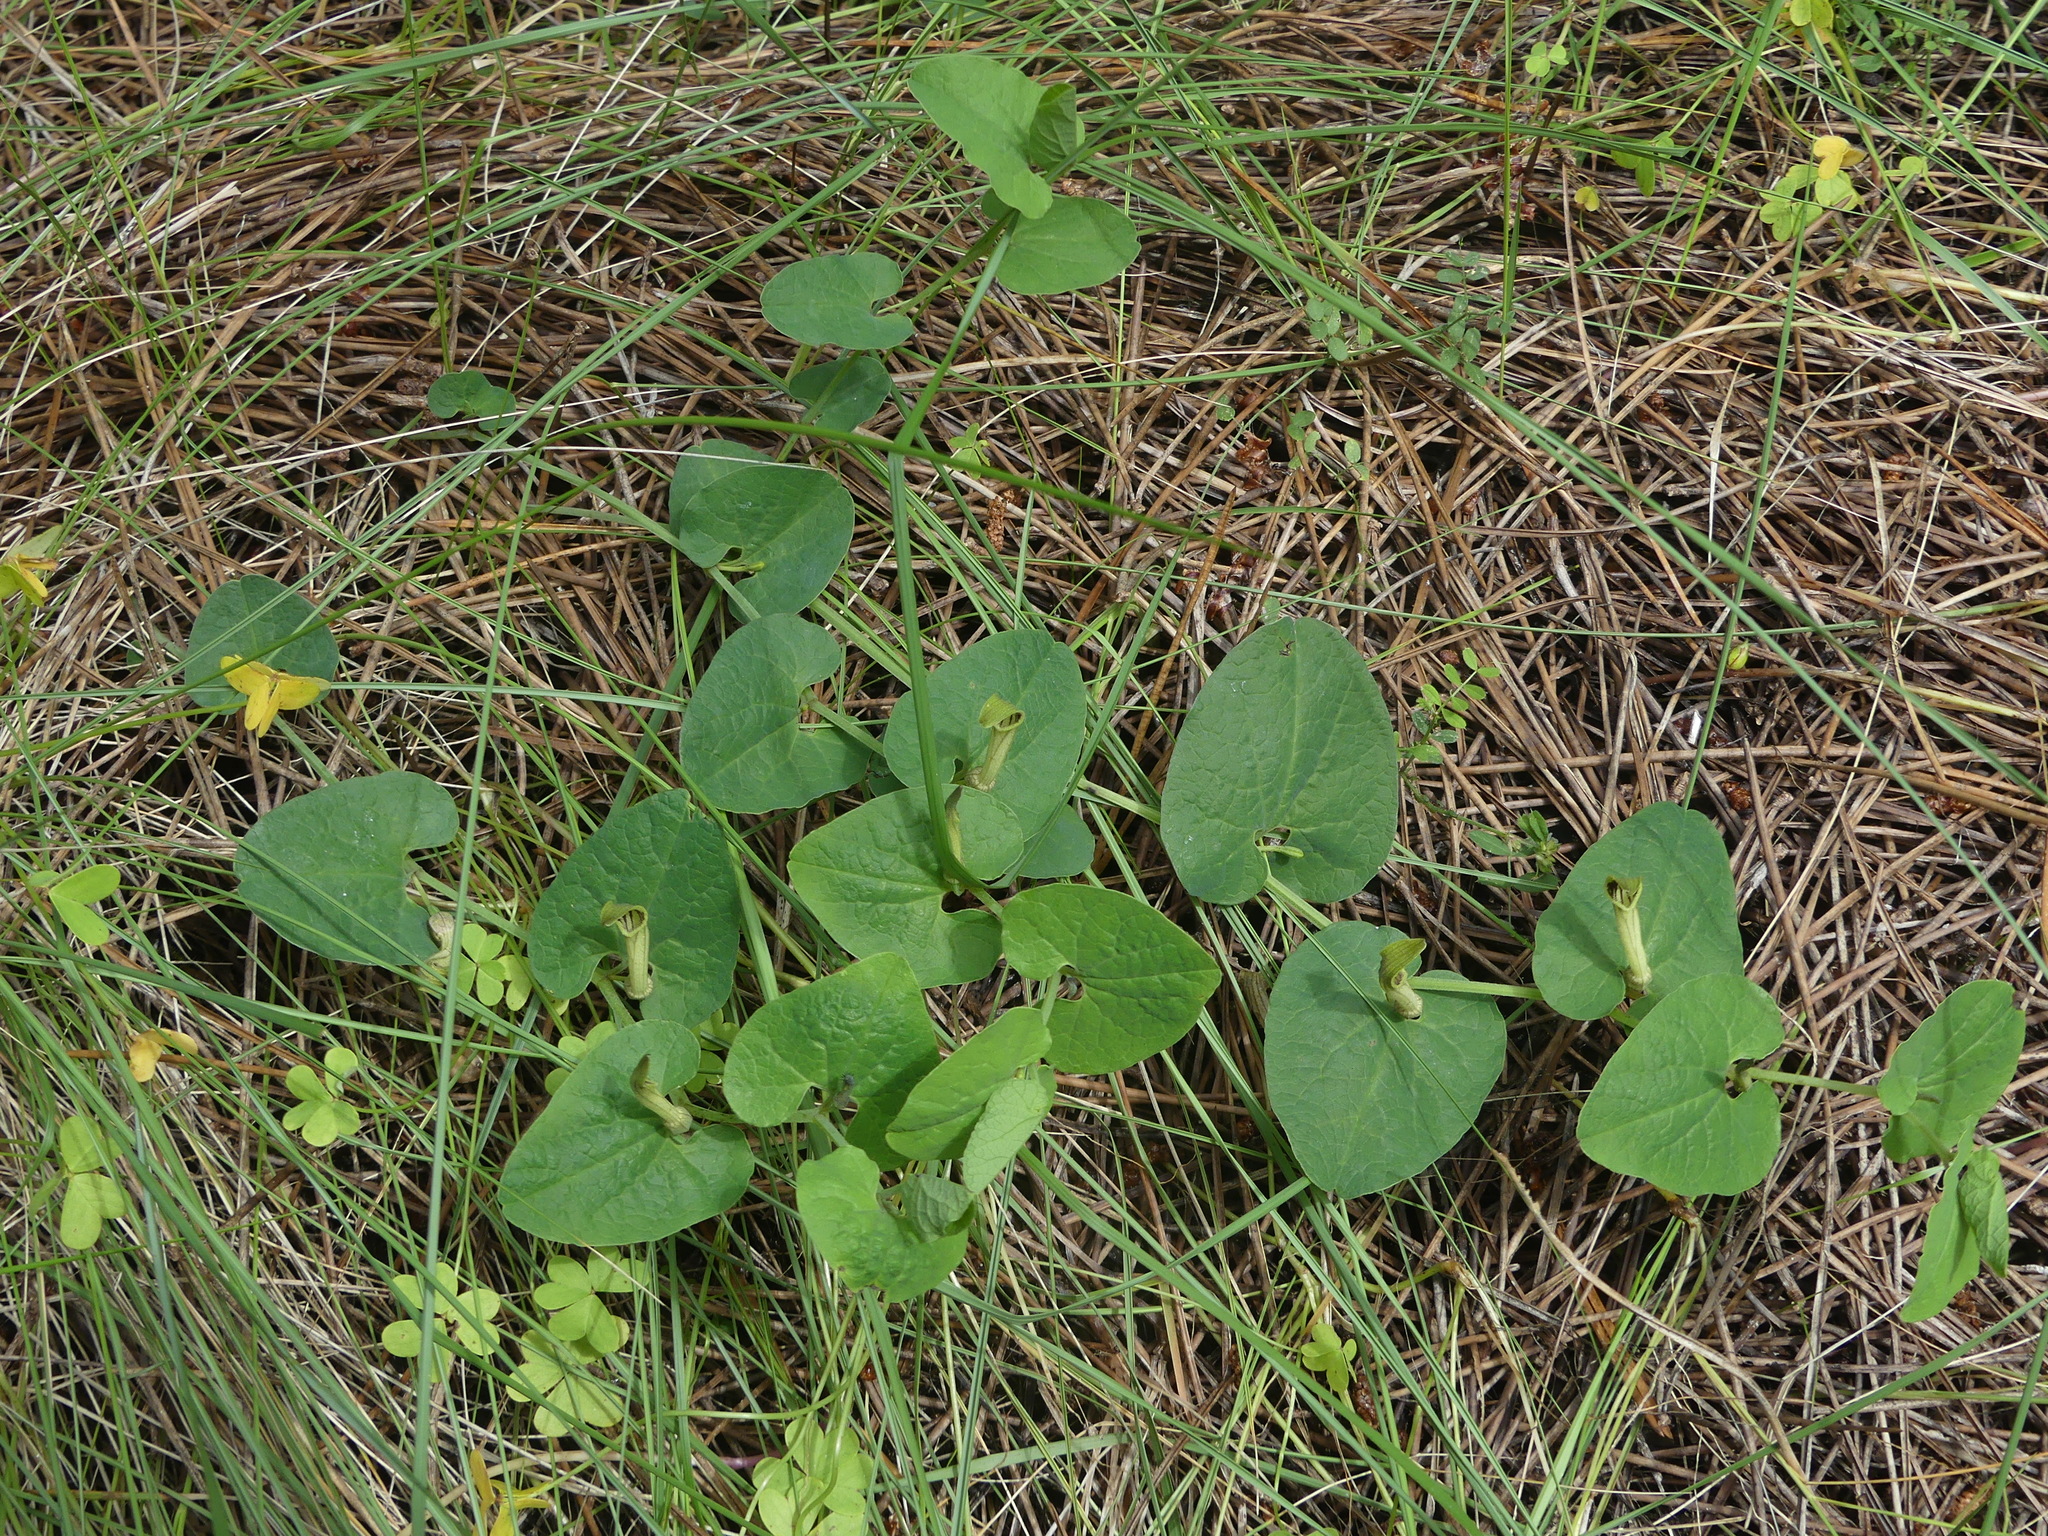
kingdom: Plantae
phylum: Tracheophyta
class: Magnoliopsida
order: Piperales
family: Aristolochiaceae
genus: Aristolochia
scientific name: Aristolochia paucinervis
